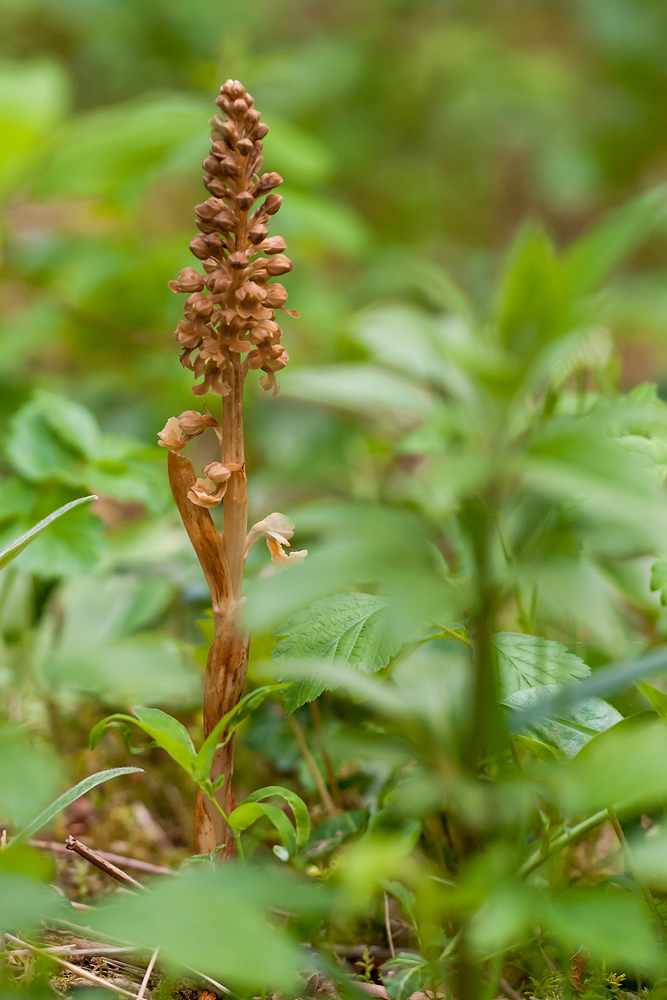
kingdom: Plantae
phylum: Tracheophyta
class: Liliopsida
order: Asparagales
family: Orchidaceae
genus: Neottia
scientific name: Neottia nidus-avis
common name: Bird's-nest orchid
